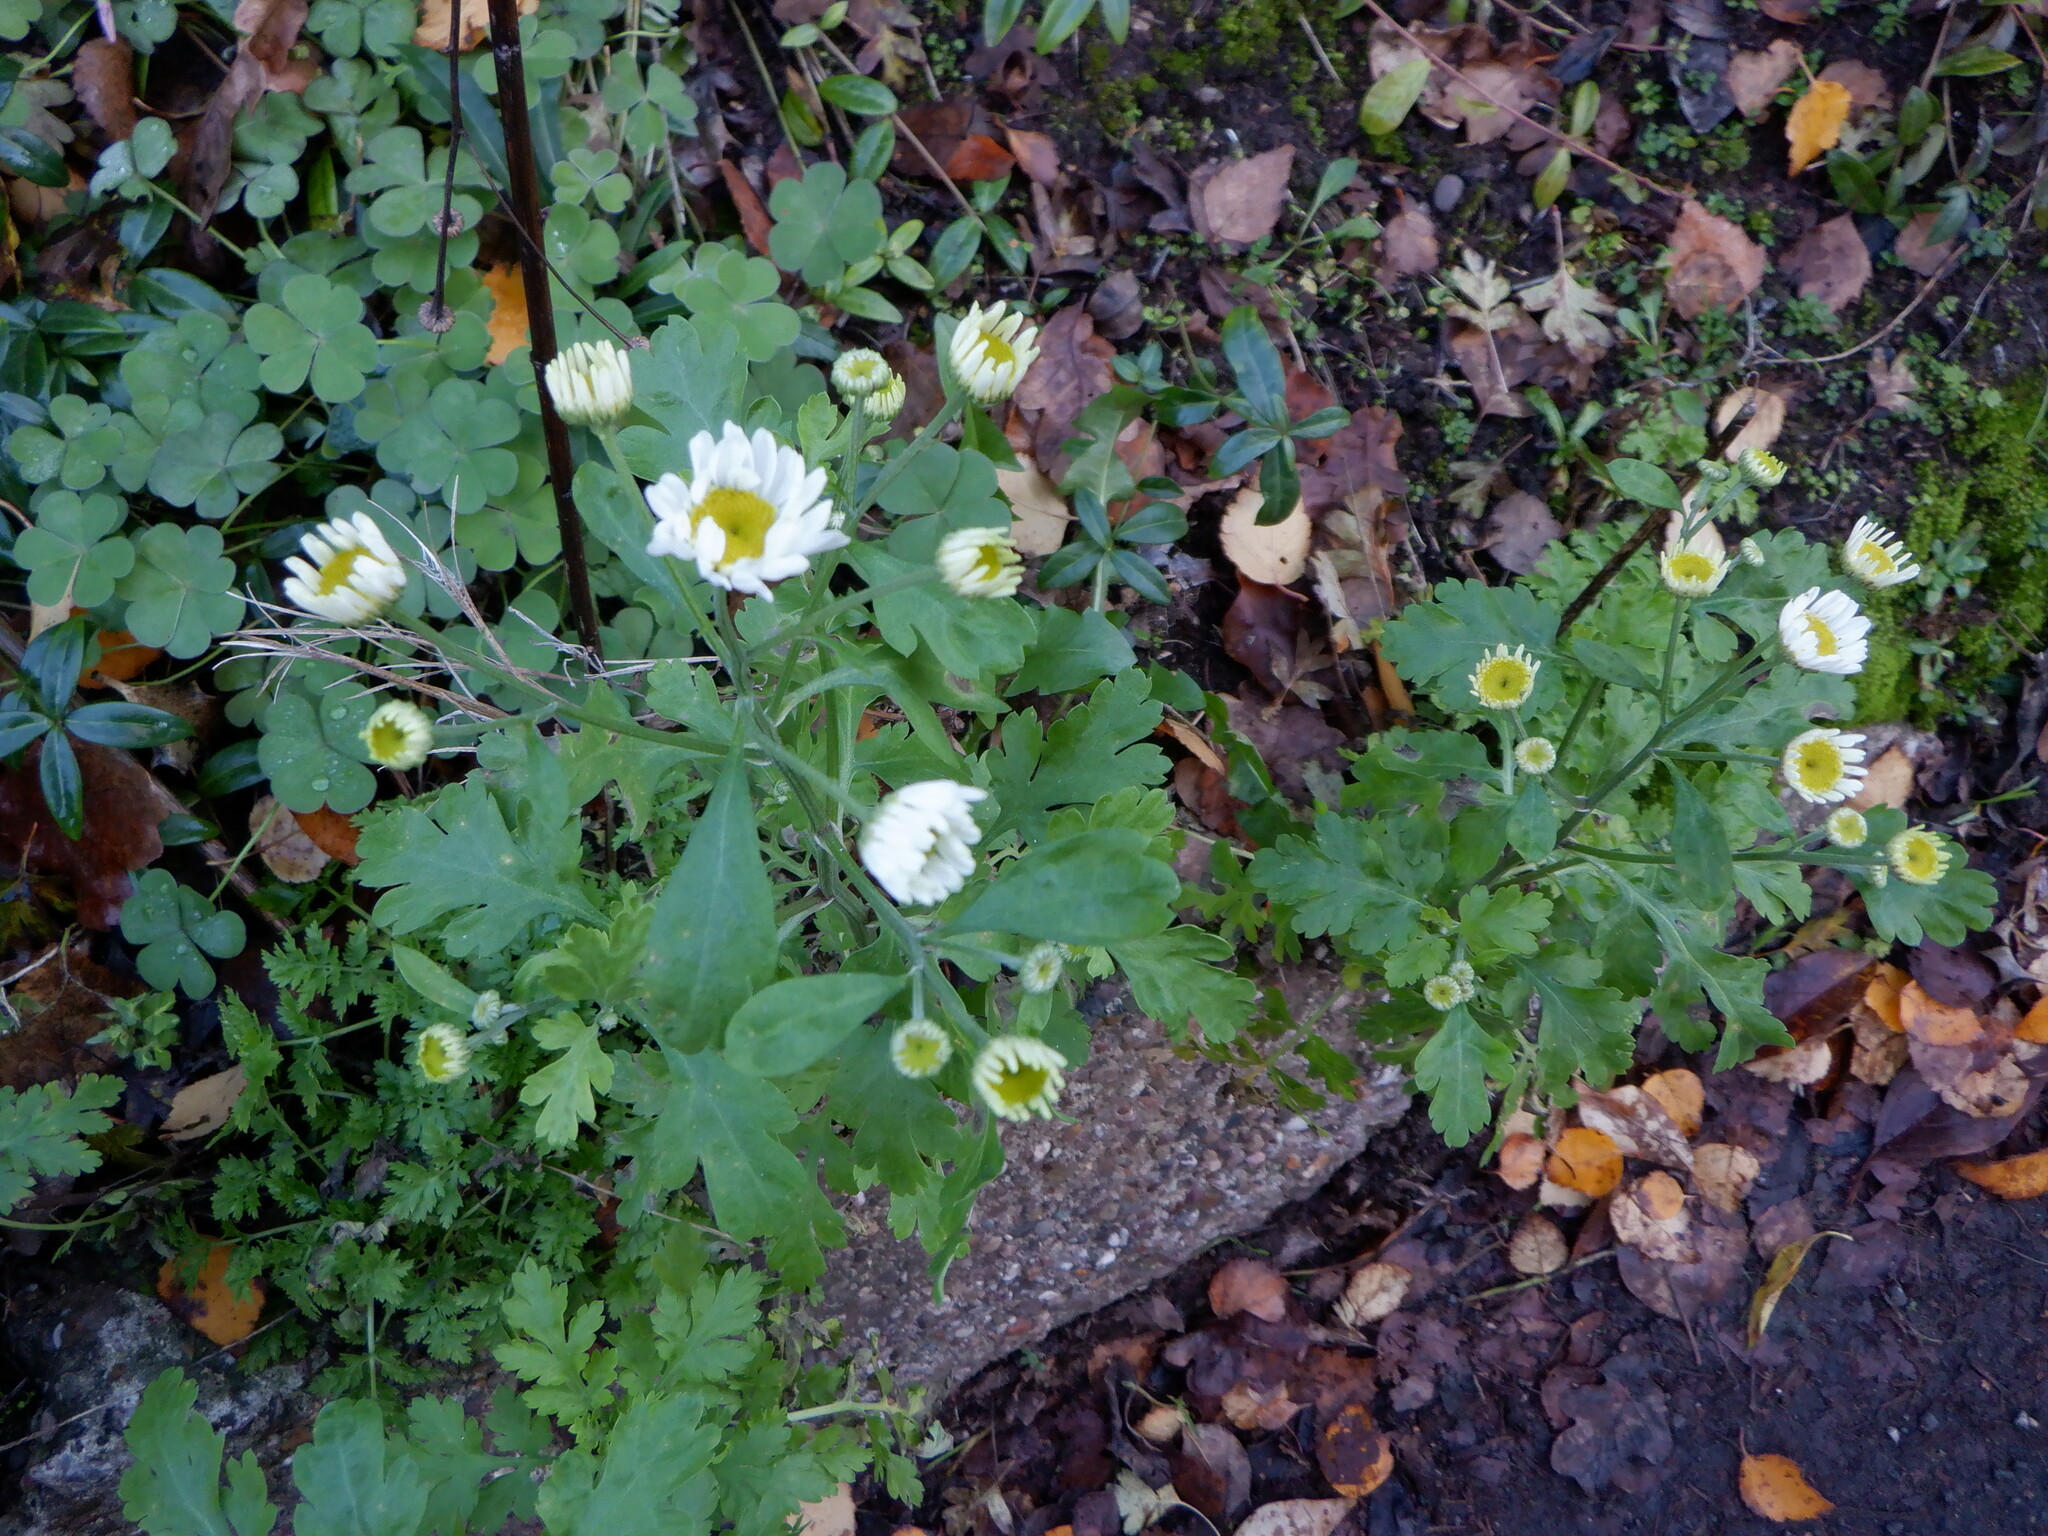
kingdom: Plantae
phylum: Tracheophyta
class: Magnoliopsida
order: Asterales
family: Asteraceae
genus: Tanacetum
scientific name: Tanacetum parthenium
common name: Feverfew
